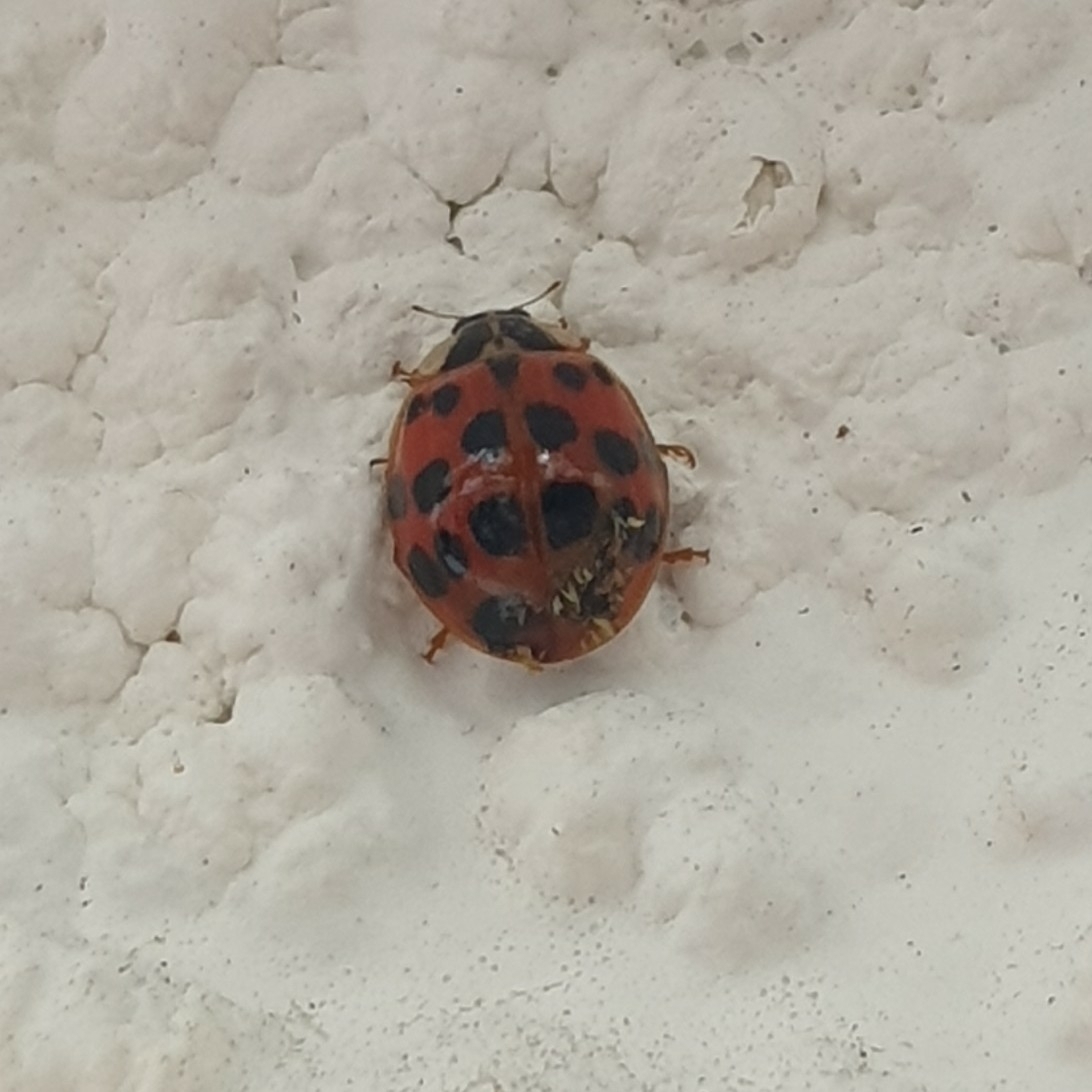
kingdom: Animalia
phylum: Arthropoda
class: Insecta
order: Coleoptera
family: Coccinellidae
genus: Harmonia
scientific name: Harmonia axyridis
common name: Harlequin ladybird
